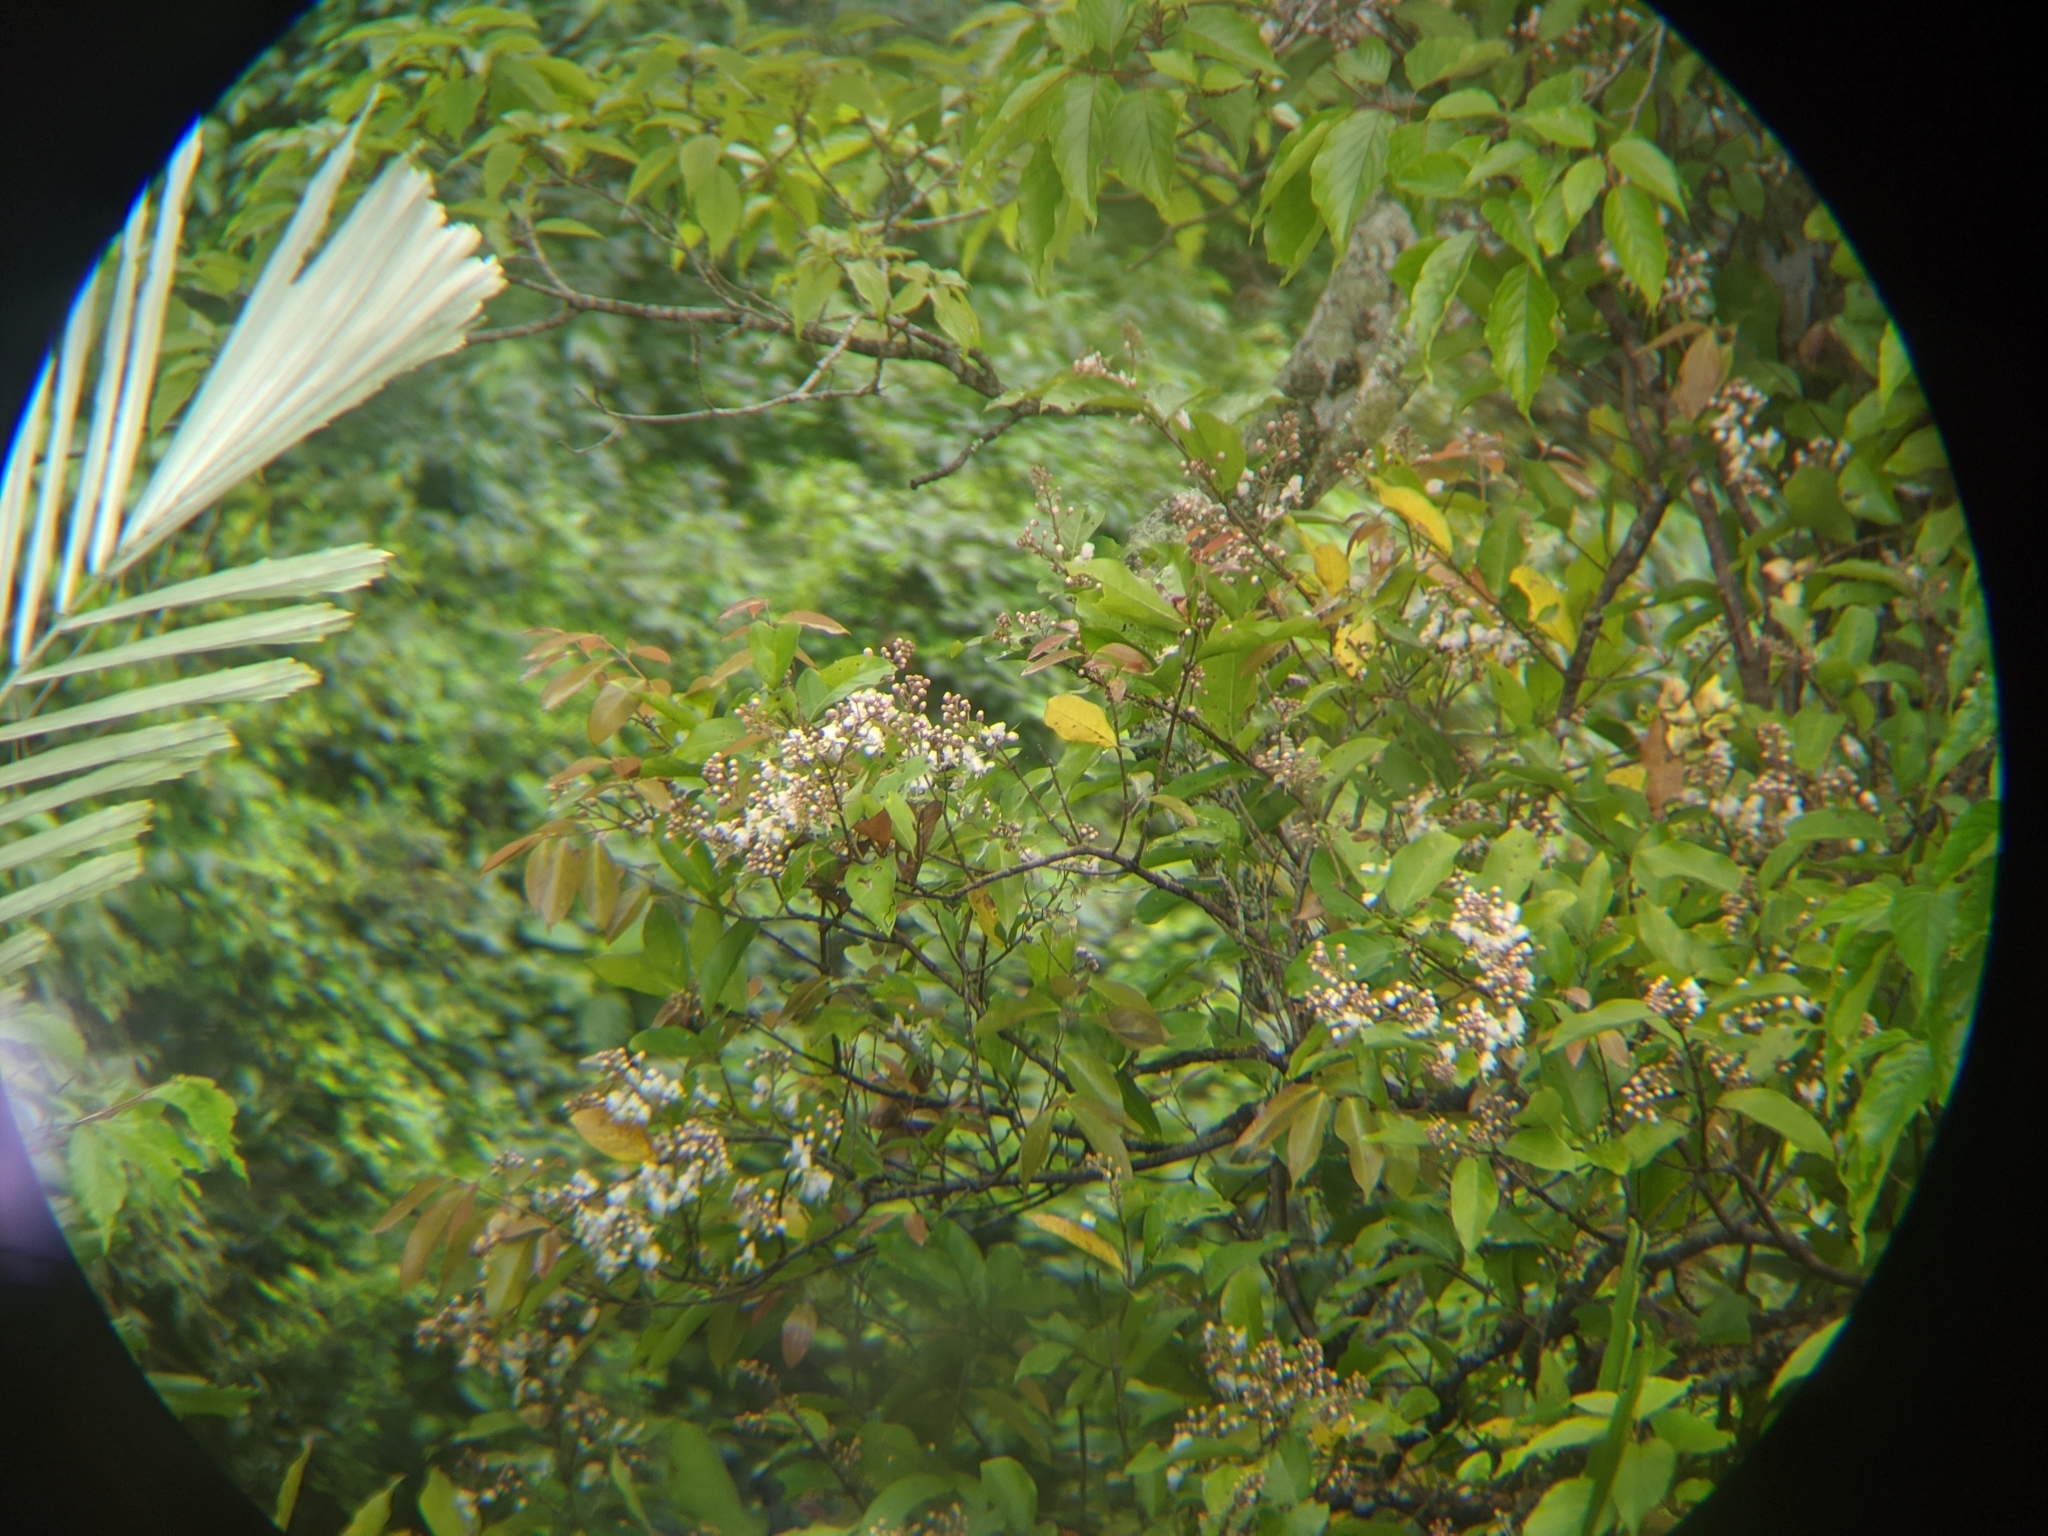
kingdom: Plantae
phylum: Tracheophyta
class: Magnoliopsida
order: Malpighiales
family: Malpighiaceae
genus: Hiptage
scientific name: Hiptage benghalensis
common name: Hiptage
